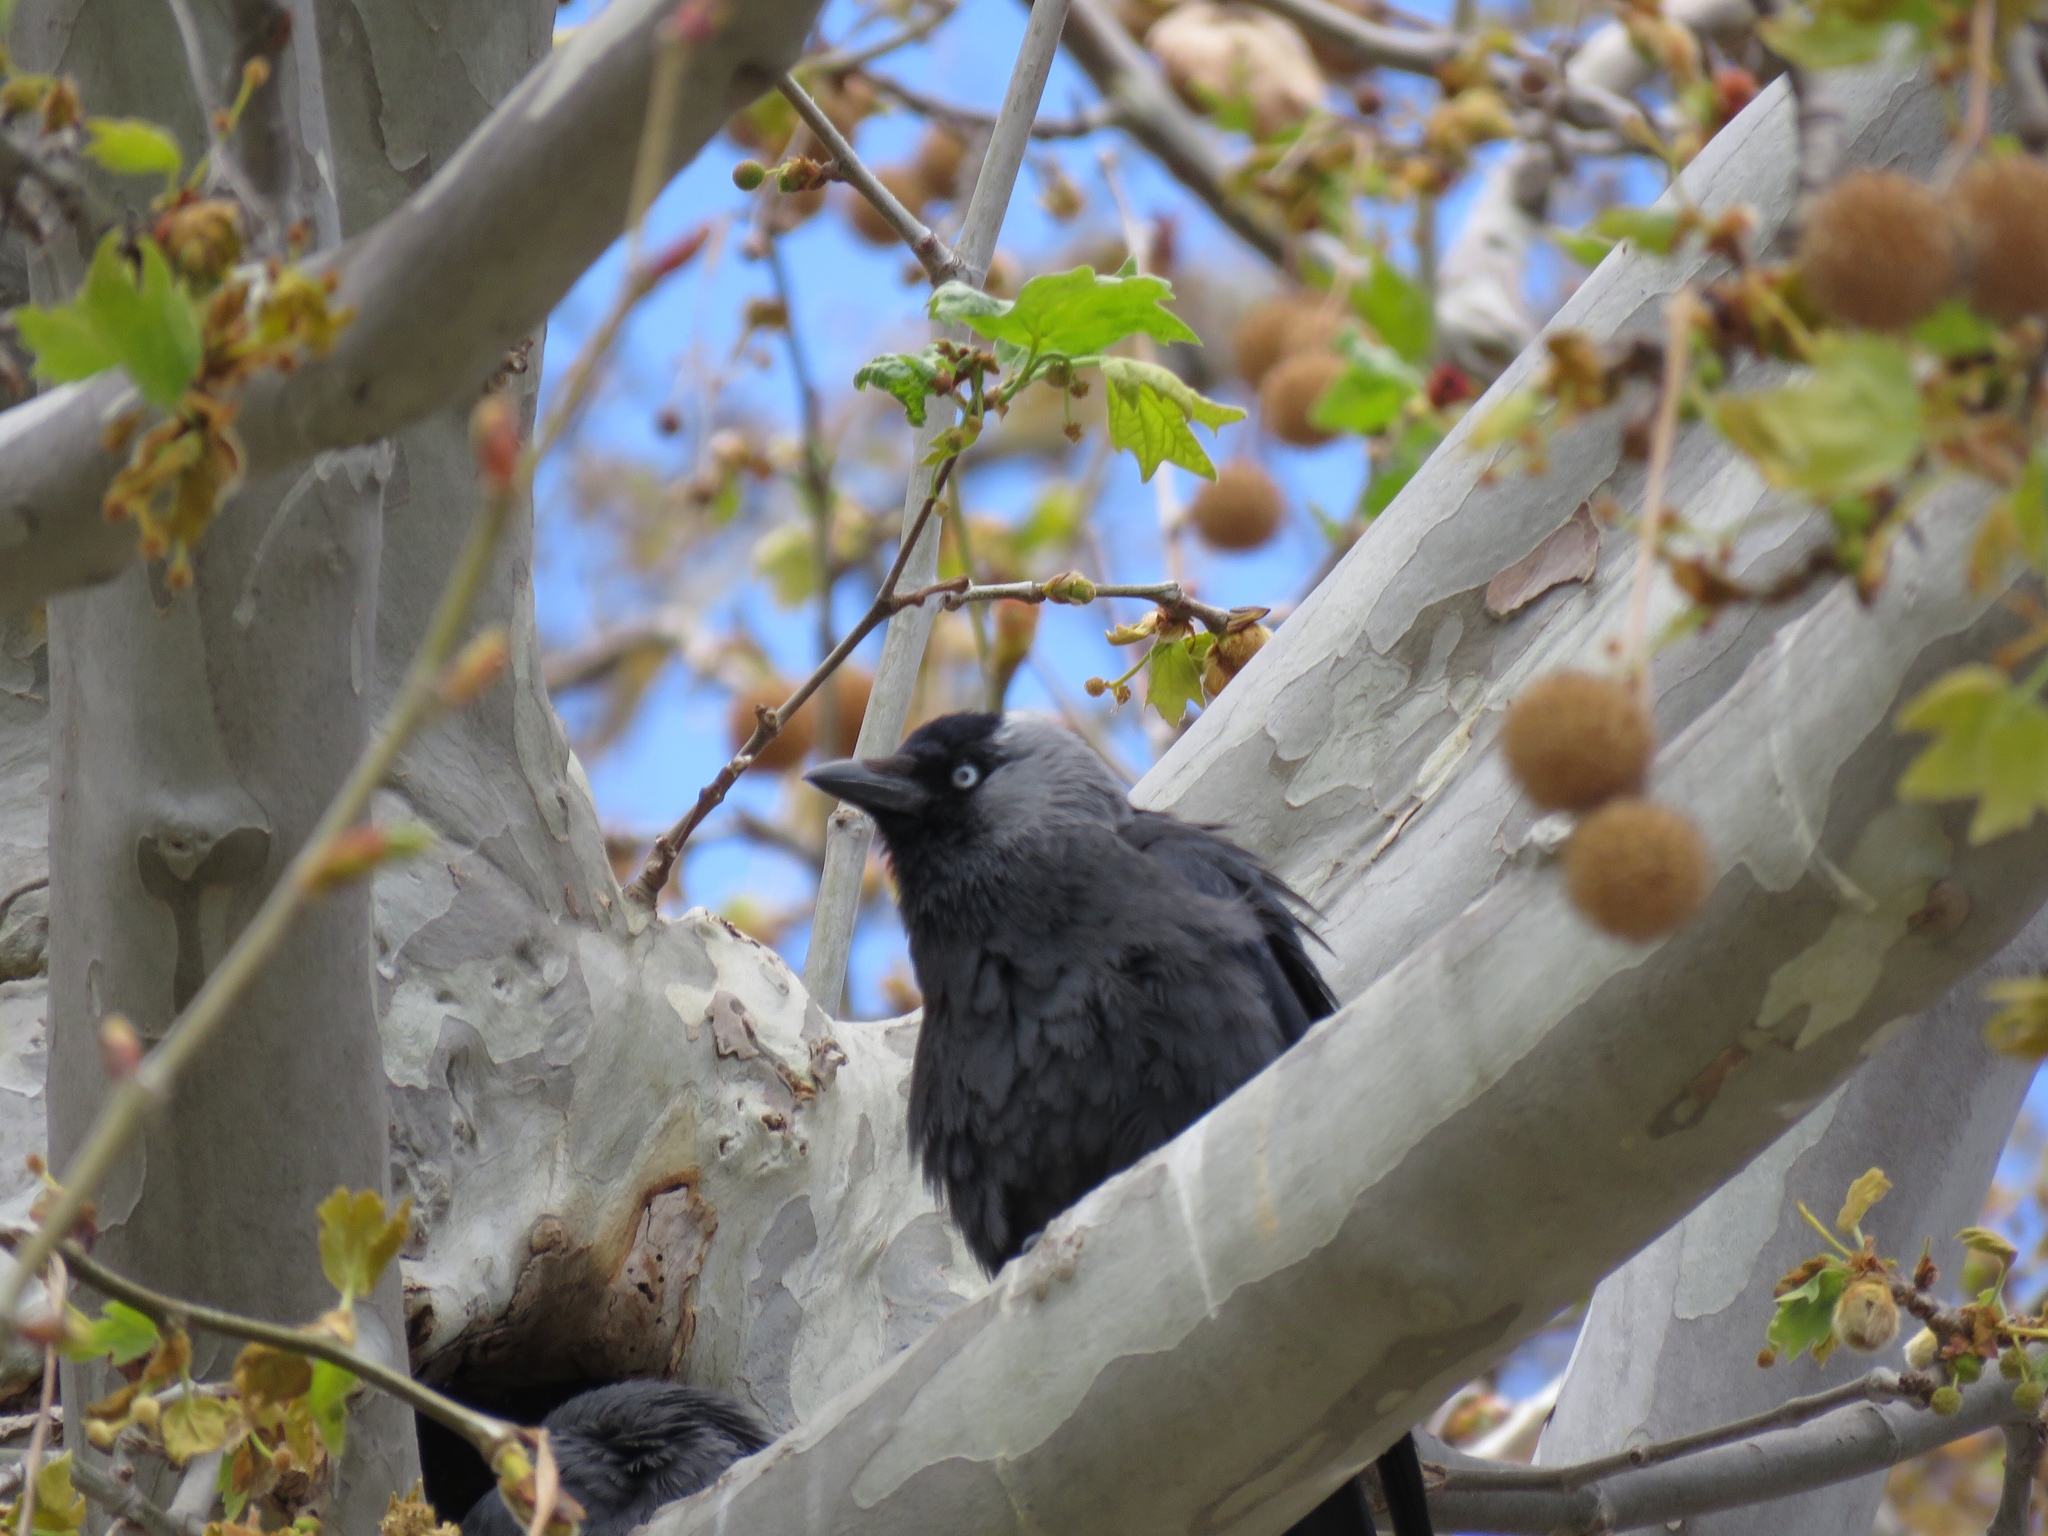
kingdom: Animalia
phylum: Chordata
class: Aves
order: Passeriformes
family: Corvidae
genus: Coloeus
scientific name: Coloeus monedula
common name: Western jackdaw
